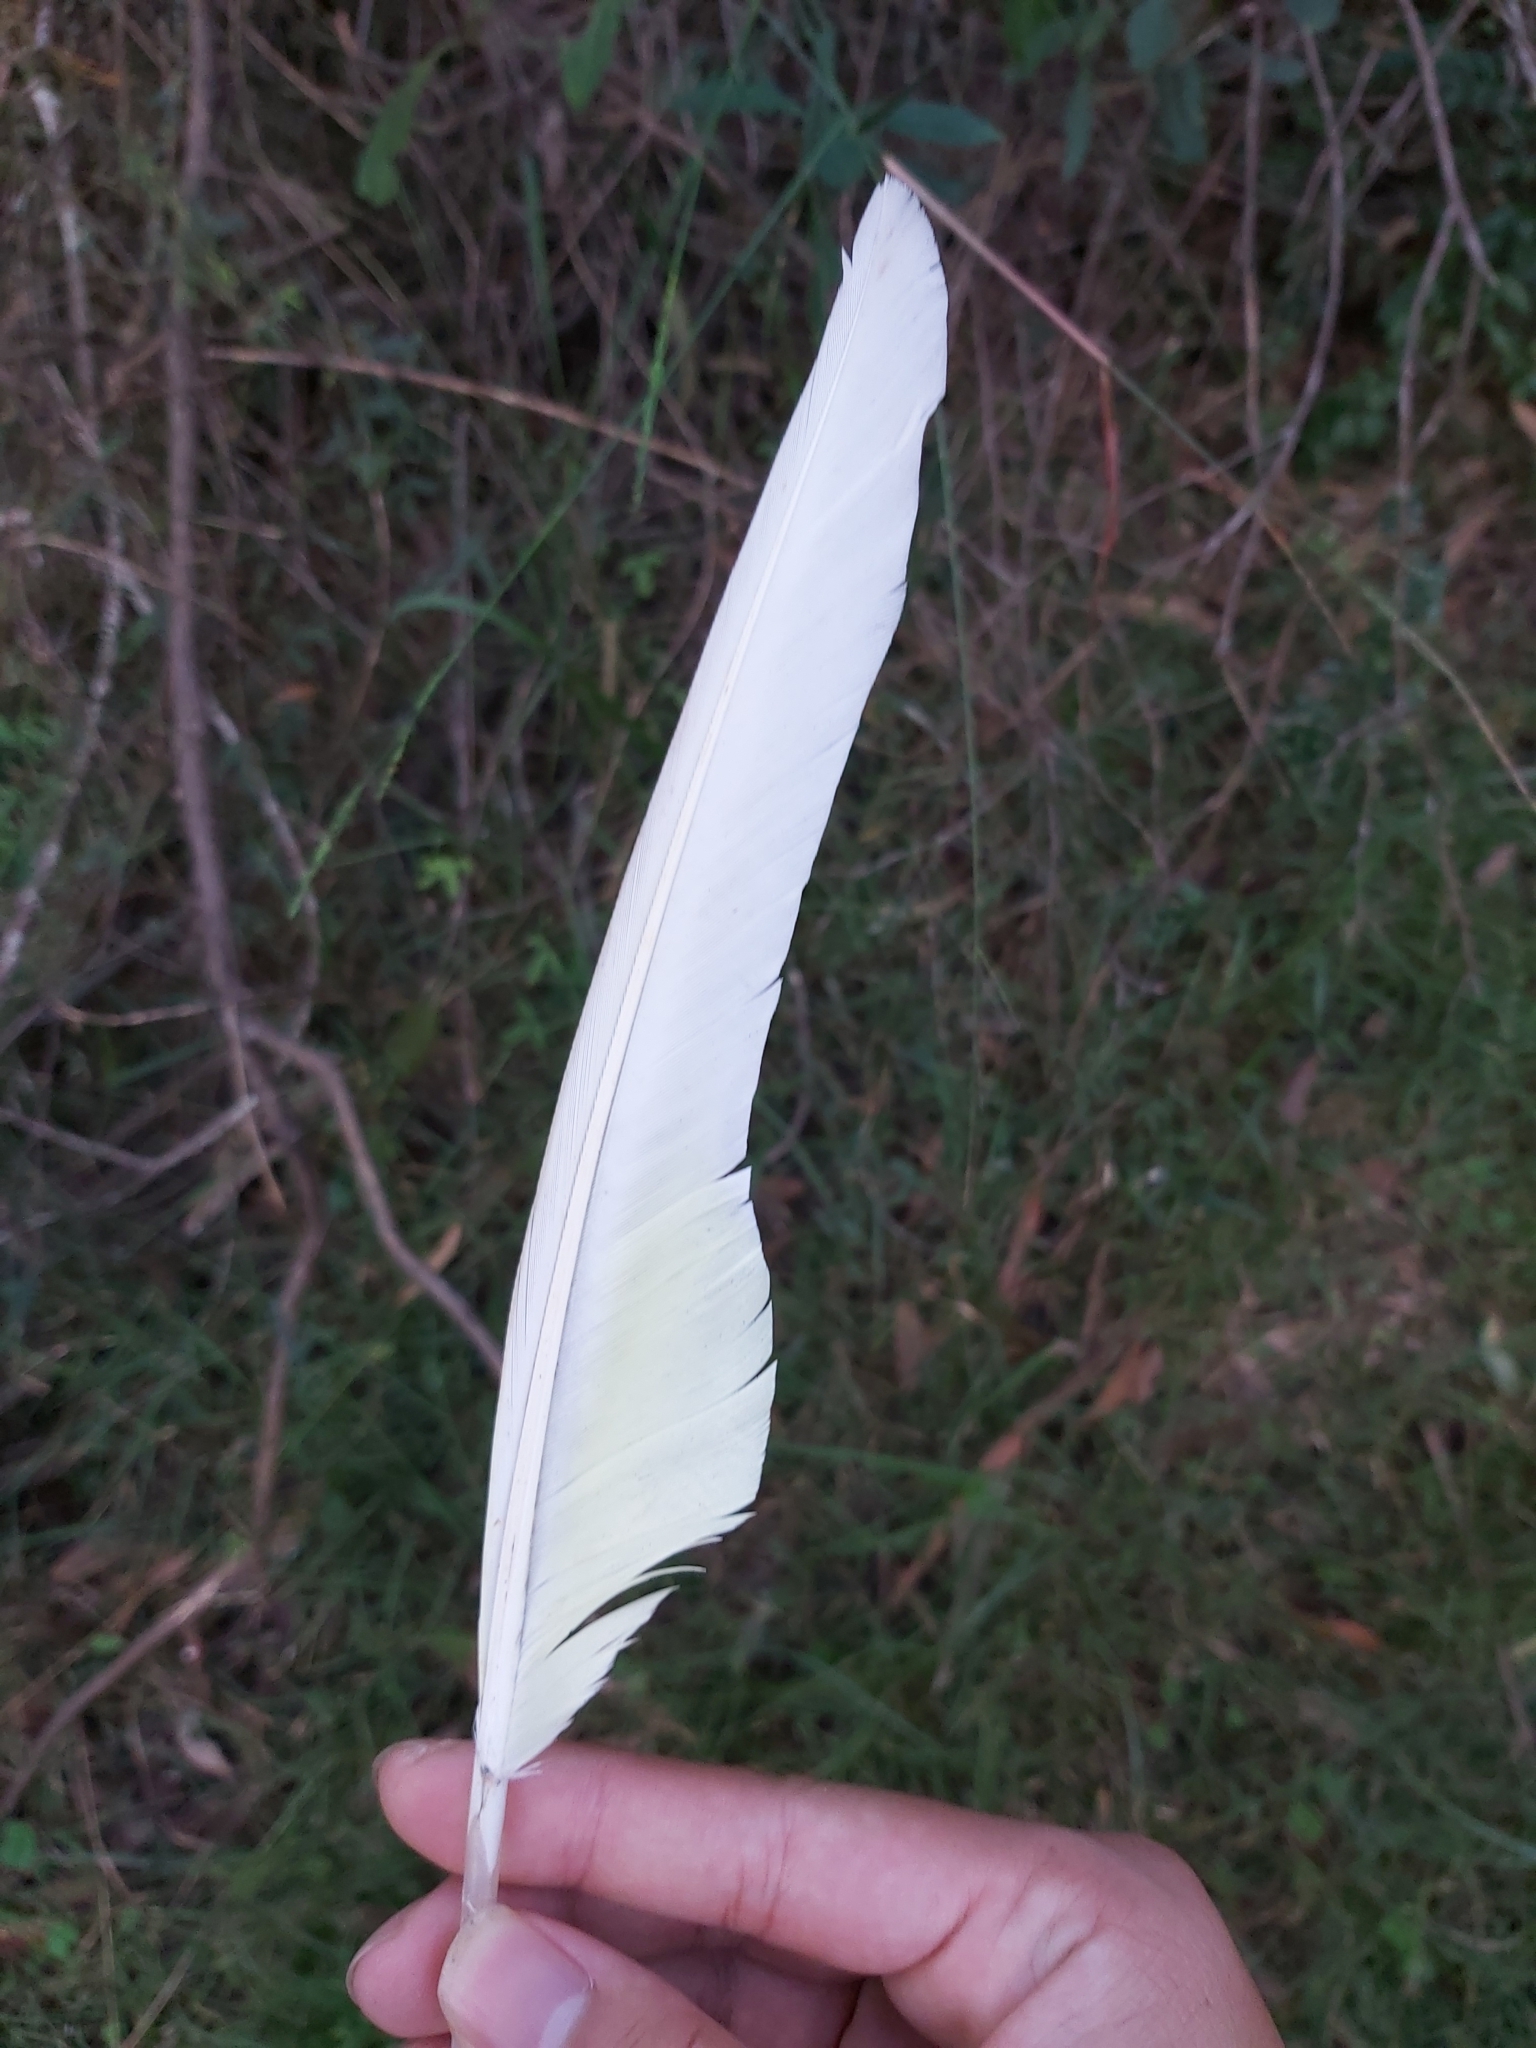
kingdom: Animalia
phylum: Chordata
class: Aves
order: Psittaciformes
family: Psittacidae
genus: Cacatua
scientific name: Cacatua galerita
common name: Sulphur-crested cockatoo
